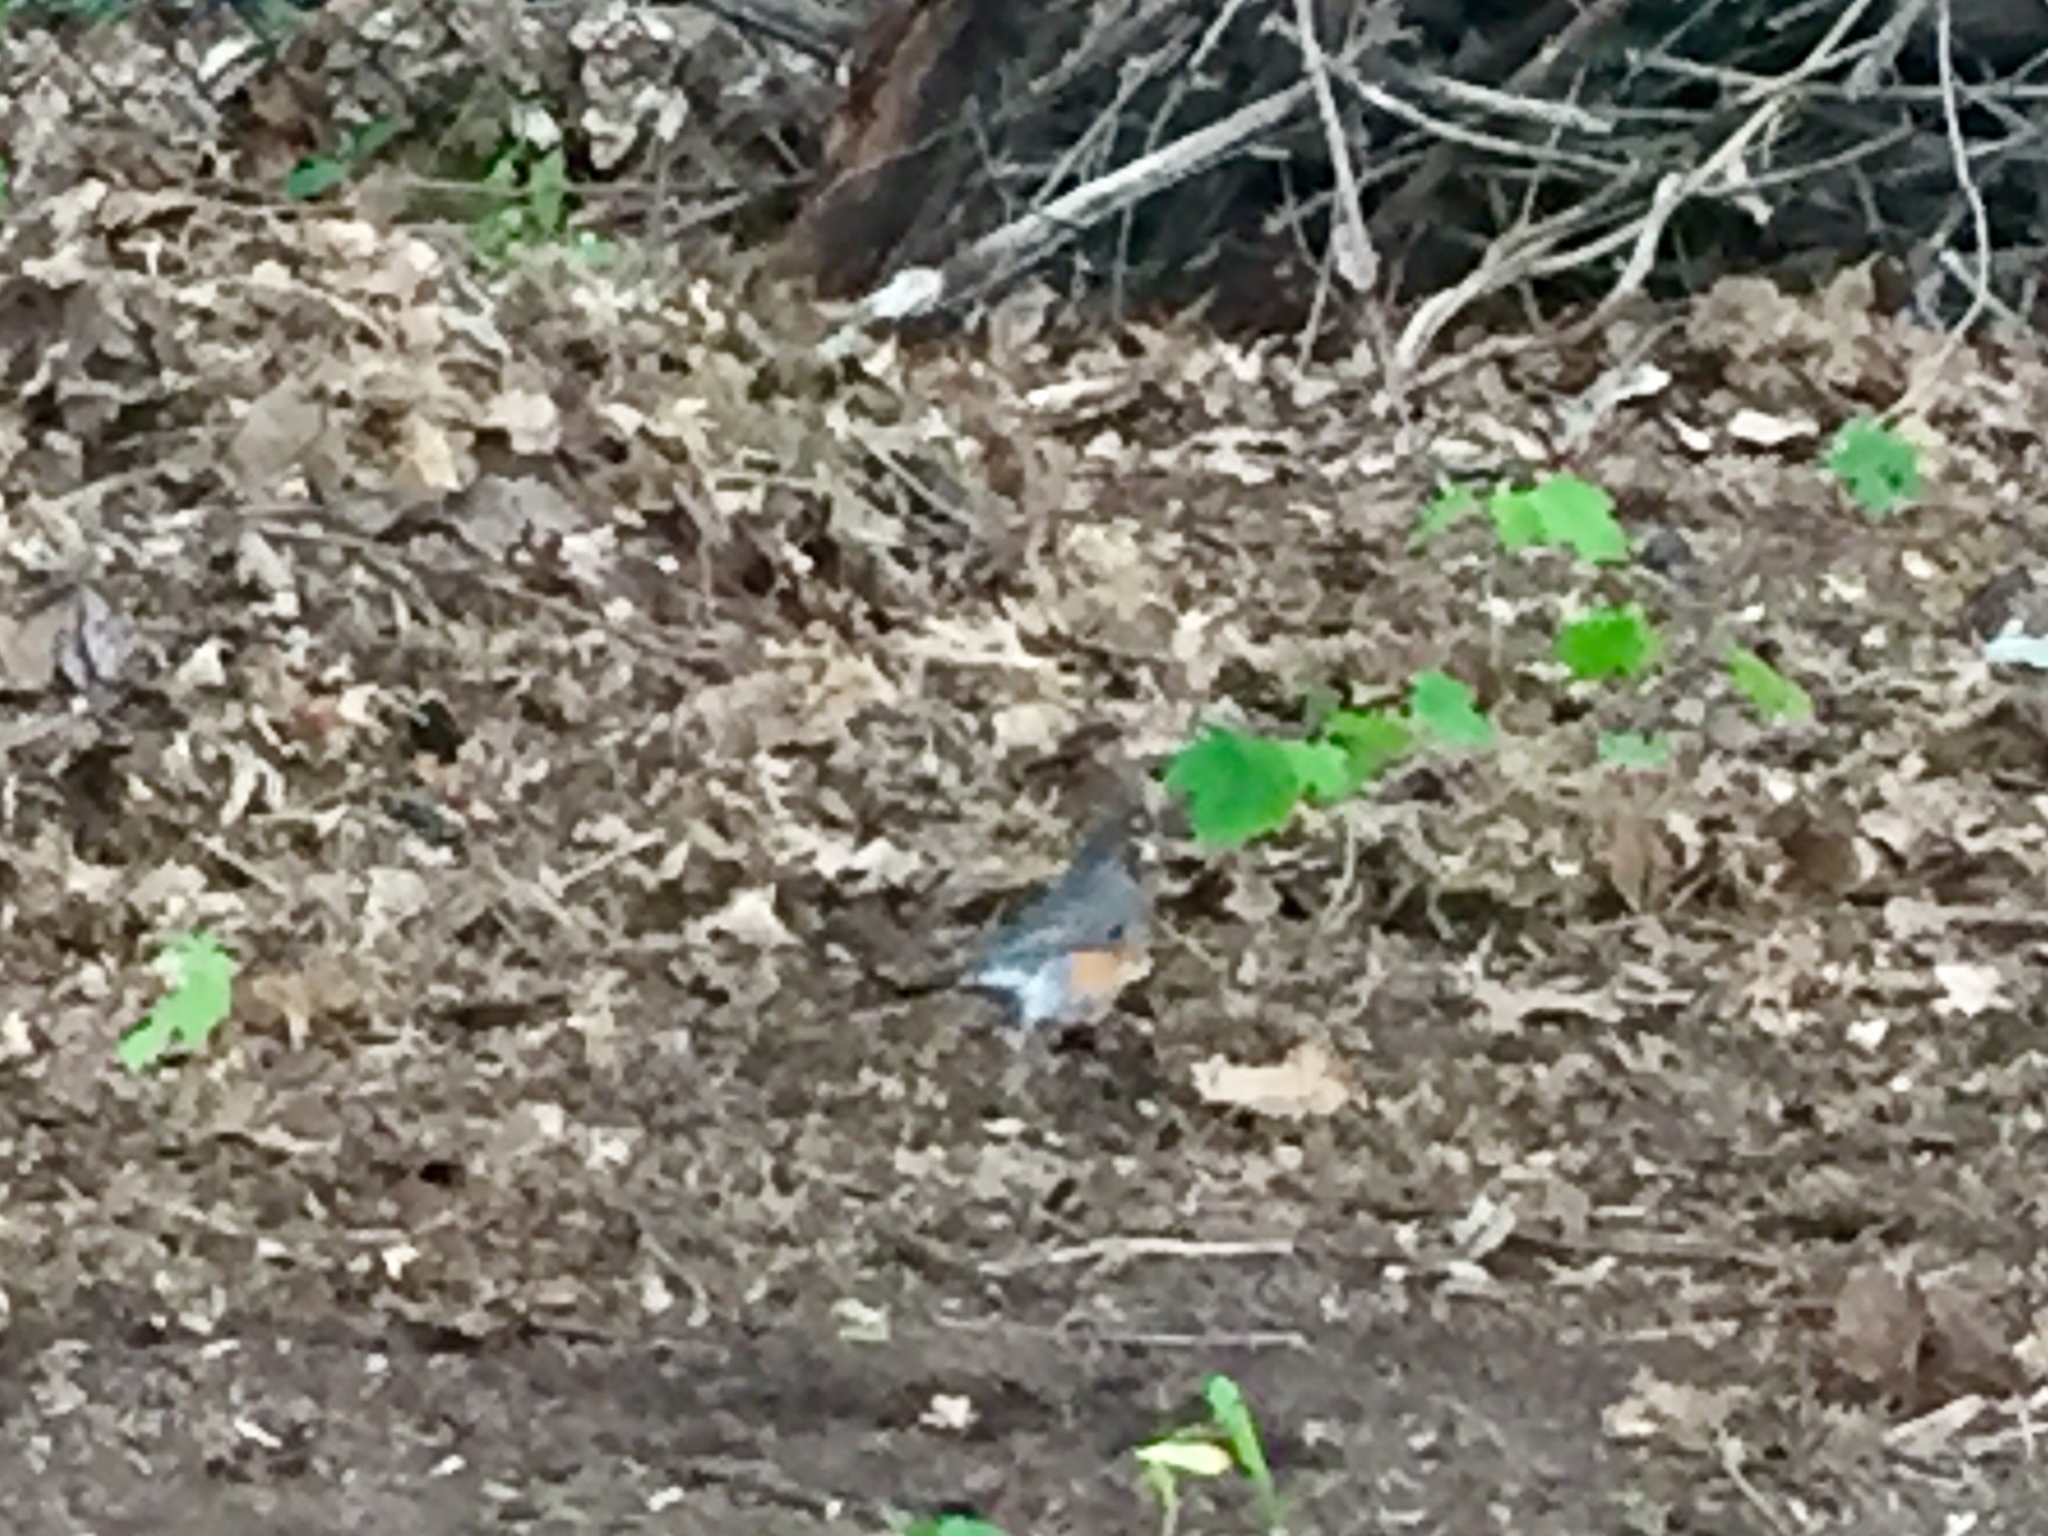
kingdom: Animalia
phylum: Chordata
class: Aves
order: Passeriformes
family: Turdidae
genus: Turdus
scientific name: Turdus migratorius
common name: American robin
